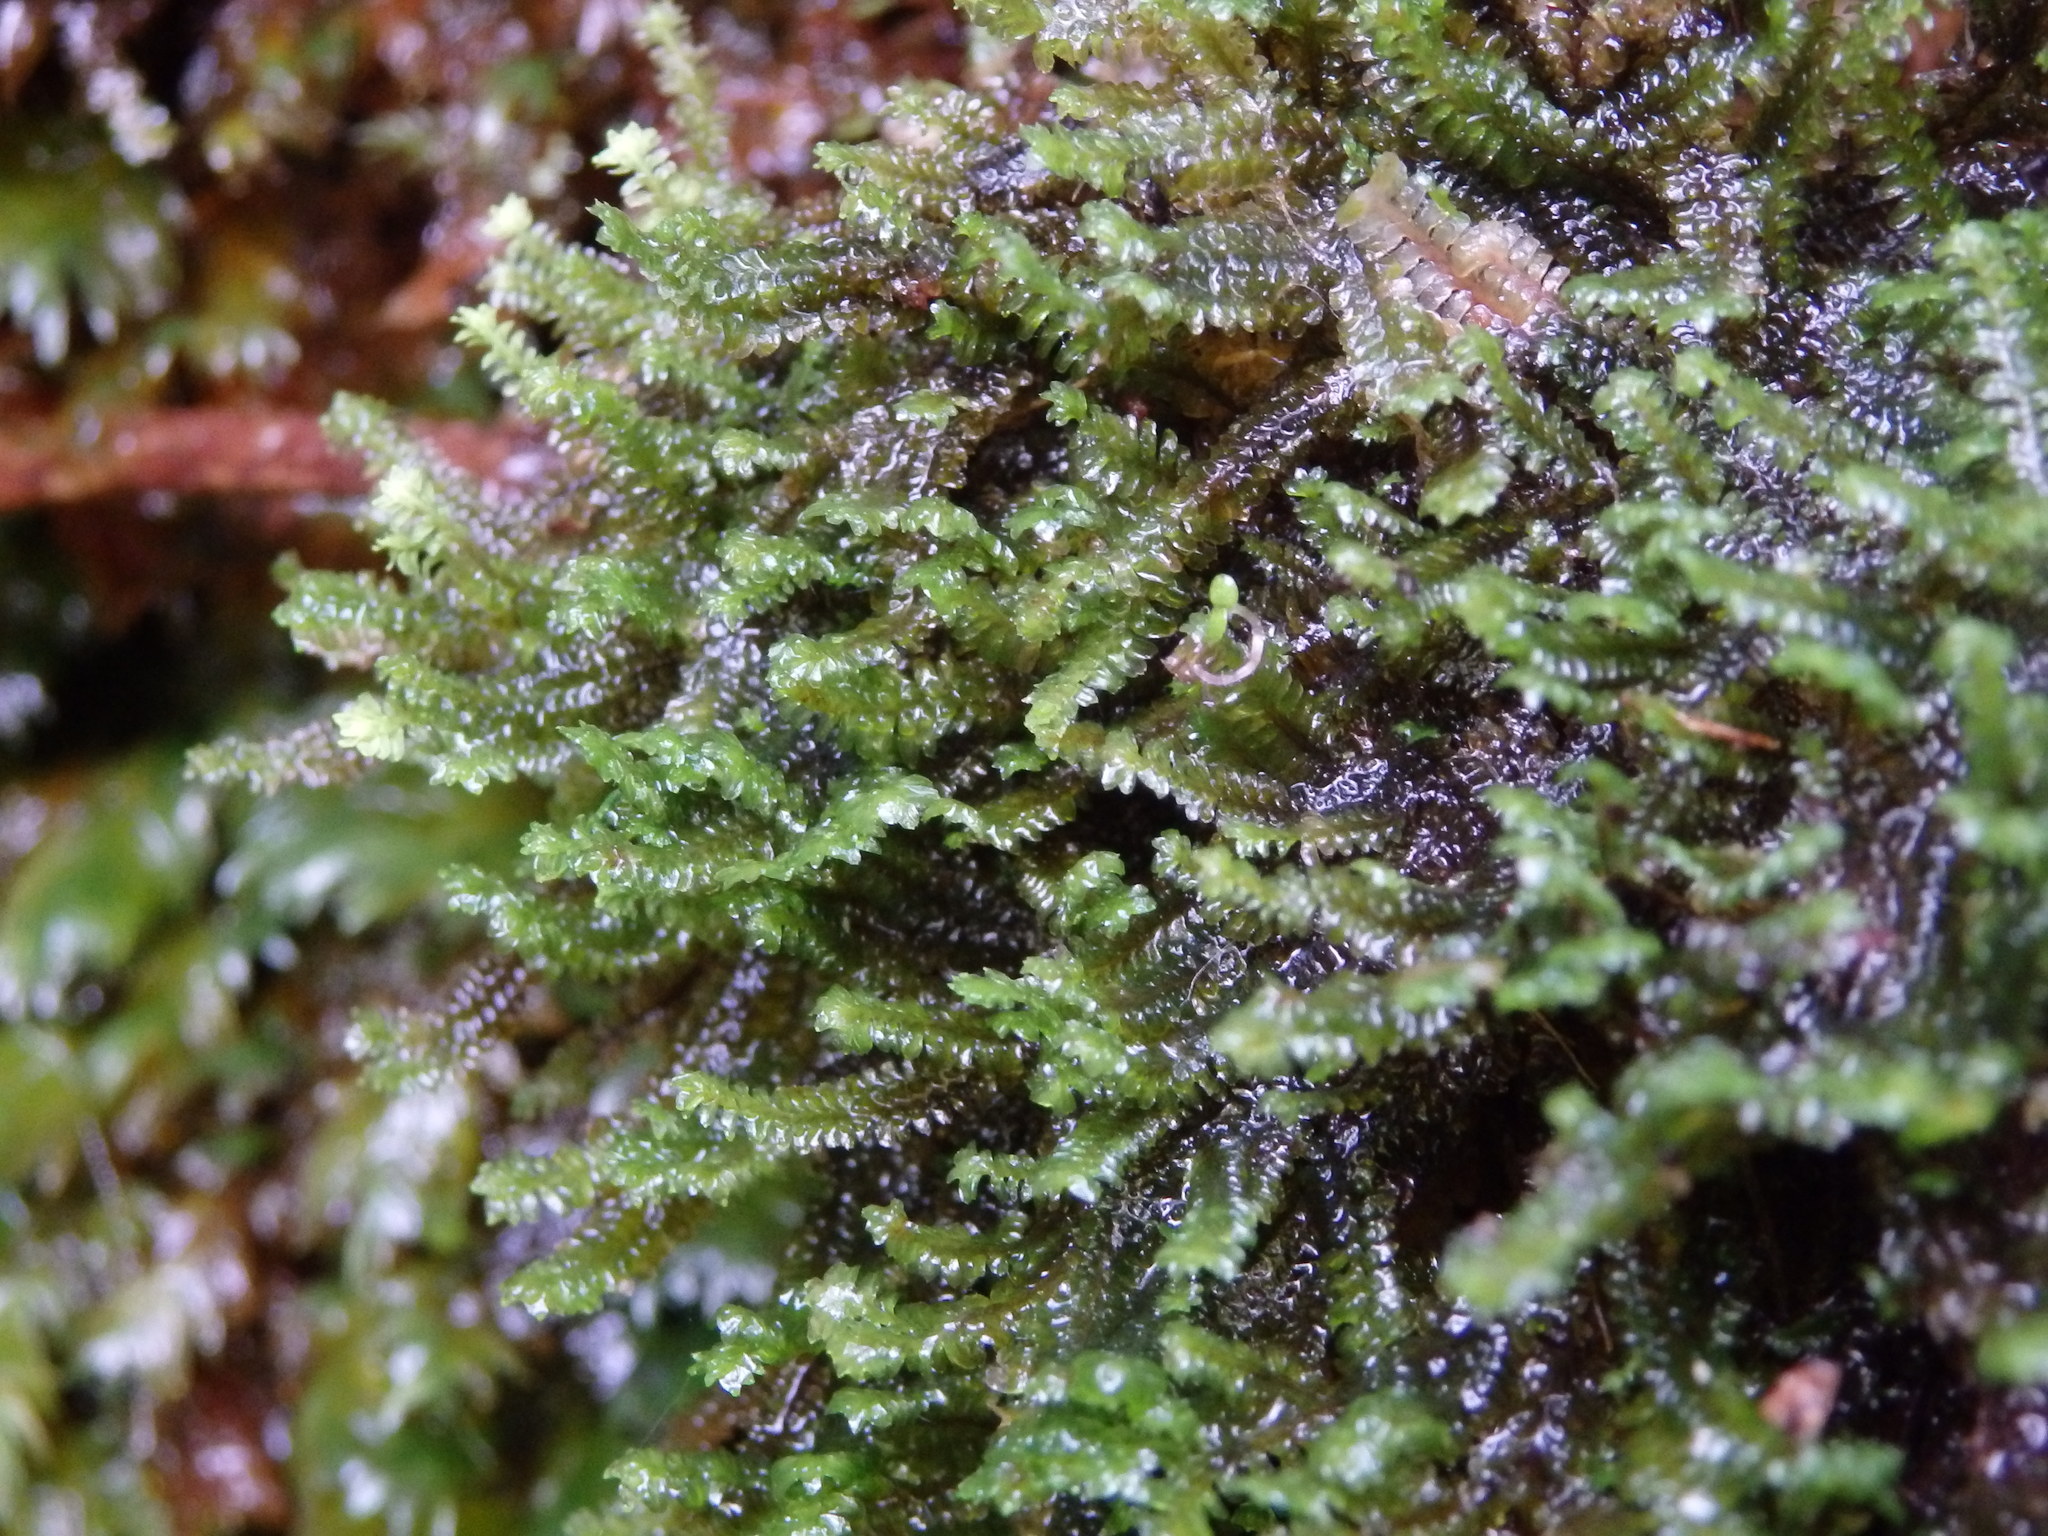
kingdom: Plantae
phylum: Marchantiophyta
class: Jungermanniopsida
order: Jungermanniales
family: Scapaniaceae
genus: Diplophyllum
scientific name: Diplophyllum albicans
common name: White earwort
